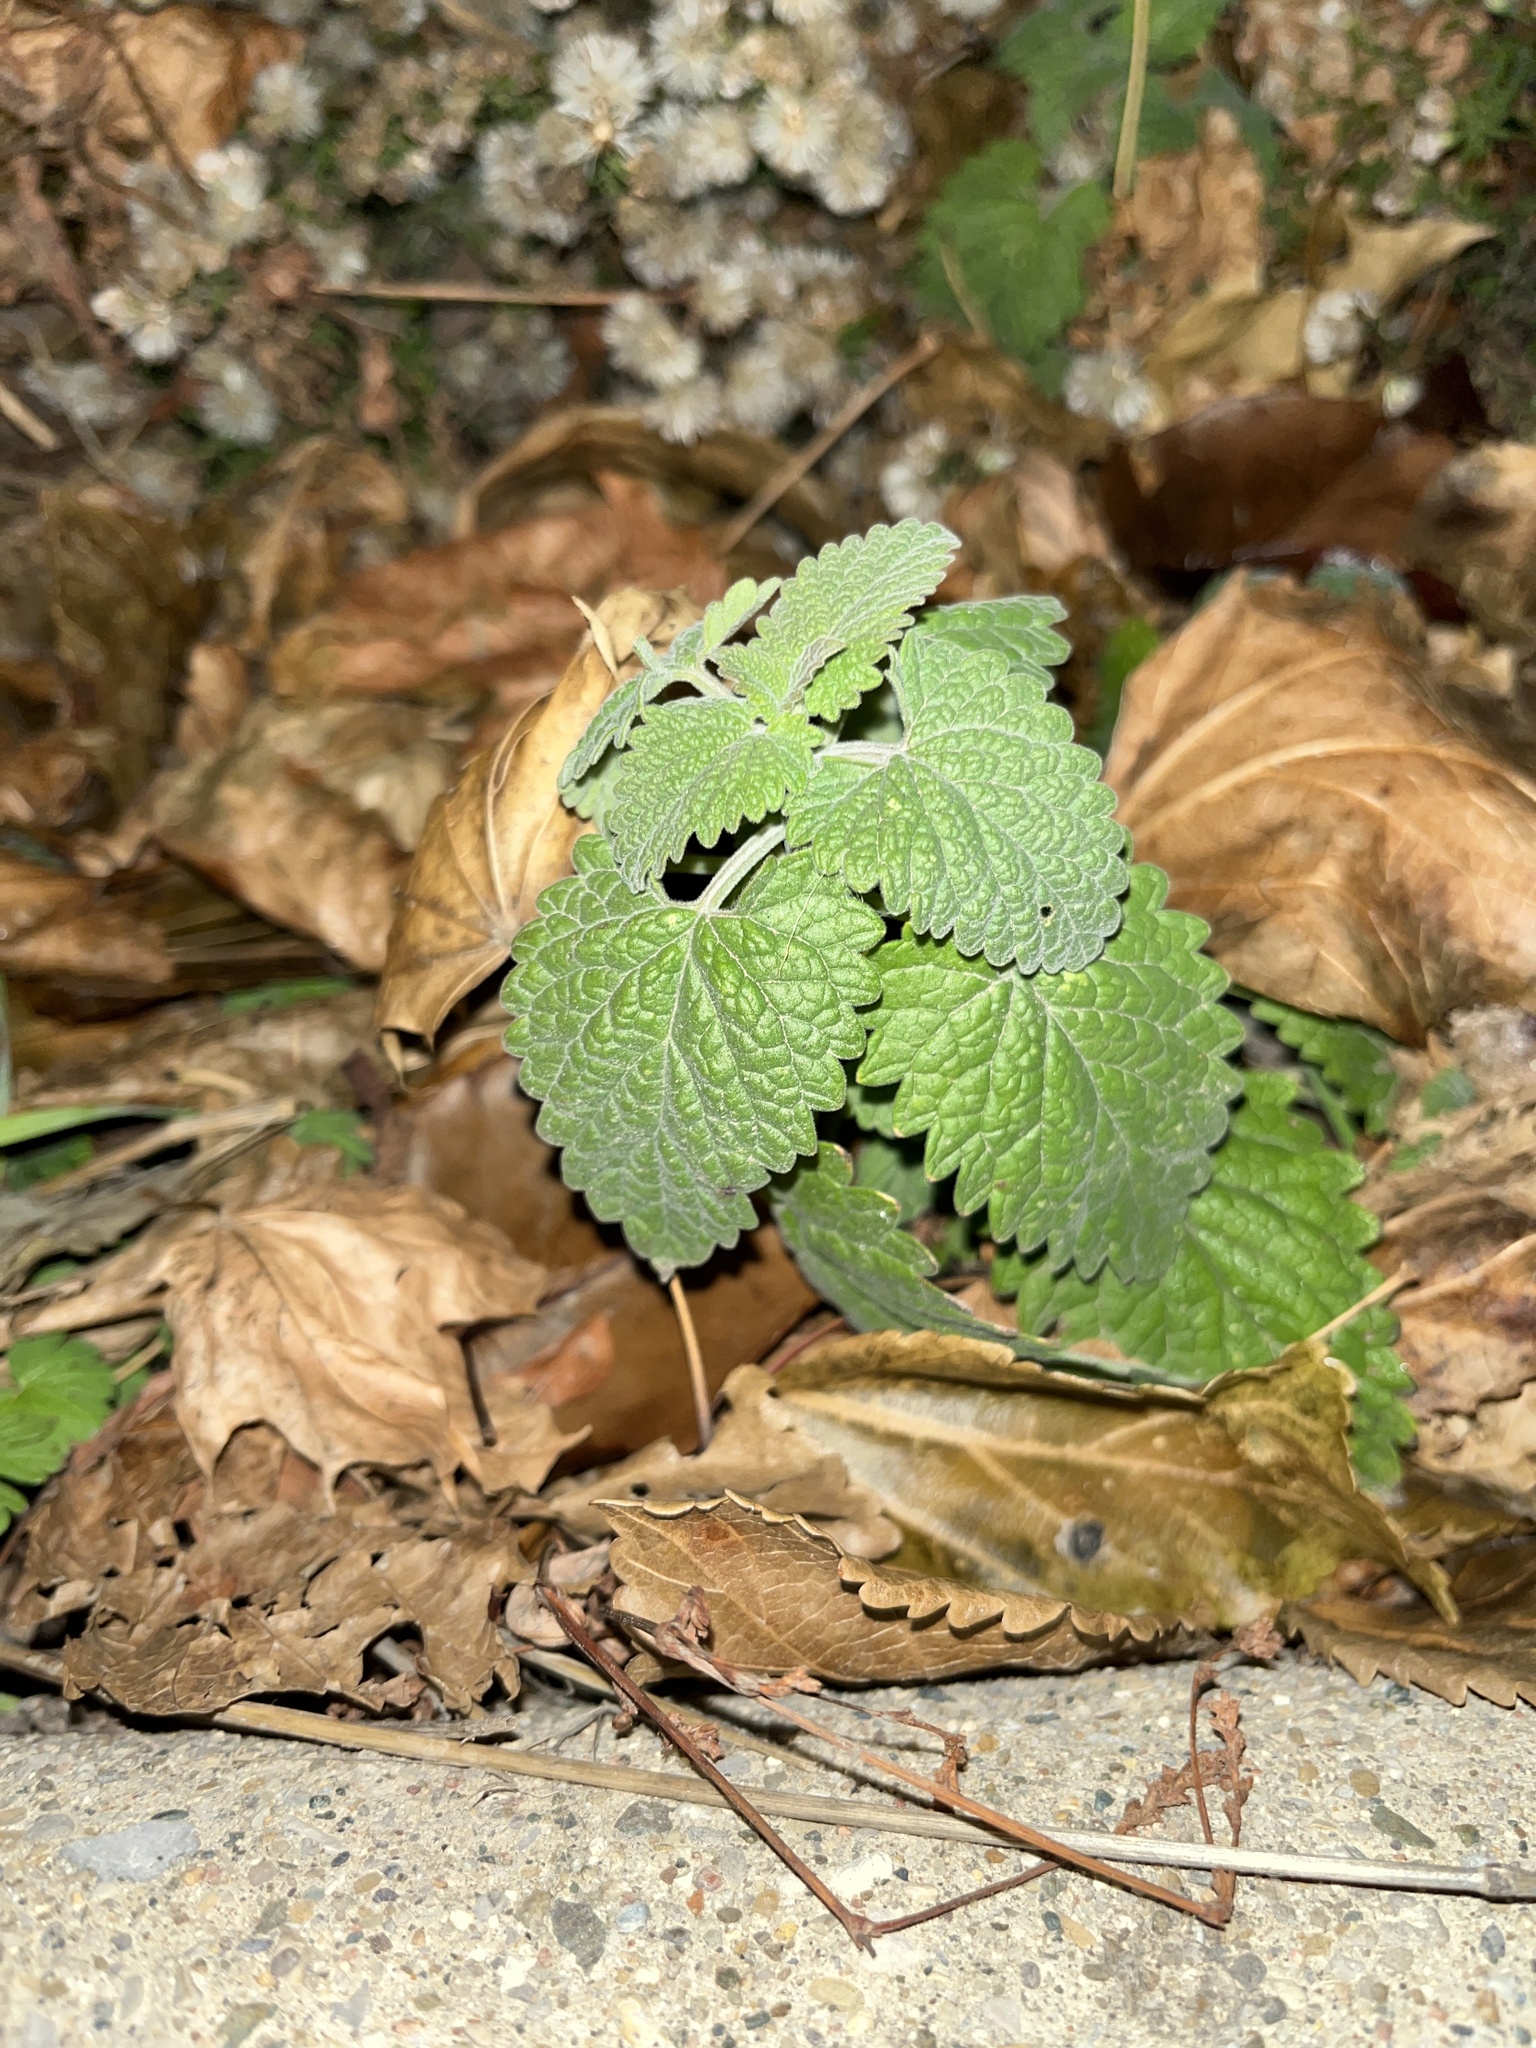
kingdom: Plantae
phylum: Tracheophyta
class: Magnoliopsida
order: Lamiales
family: Lamiaceae
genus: Nepeta
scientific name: Nepeta cataria
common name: Catnip
